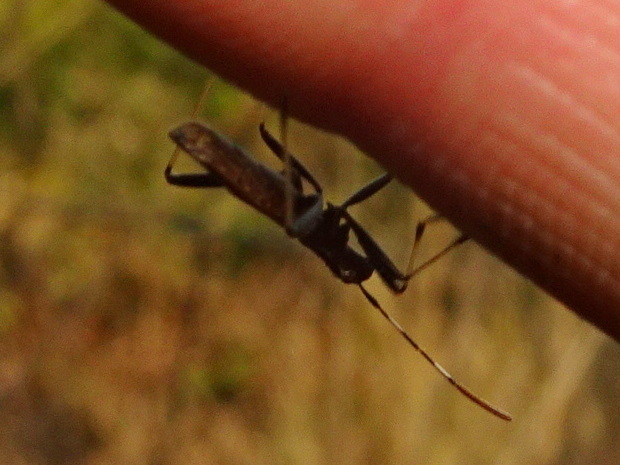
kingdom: Animalia
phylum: Arthropoda
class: Insecta
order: Hemiptera
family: Alydidae
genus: Micrelytra
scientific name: Micrelytra fossularum
